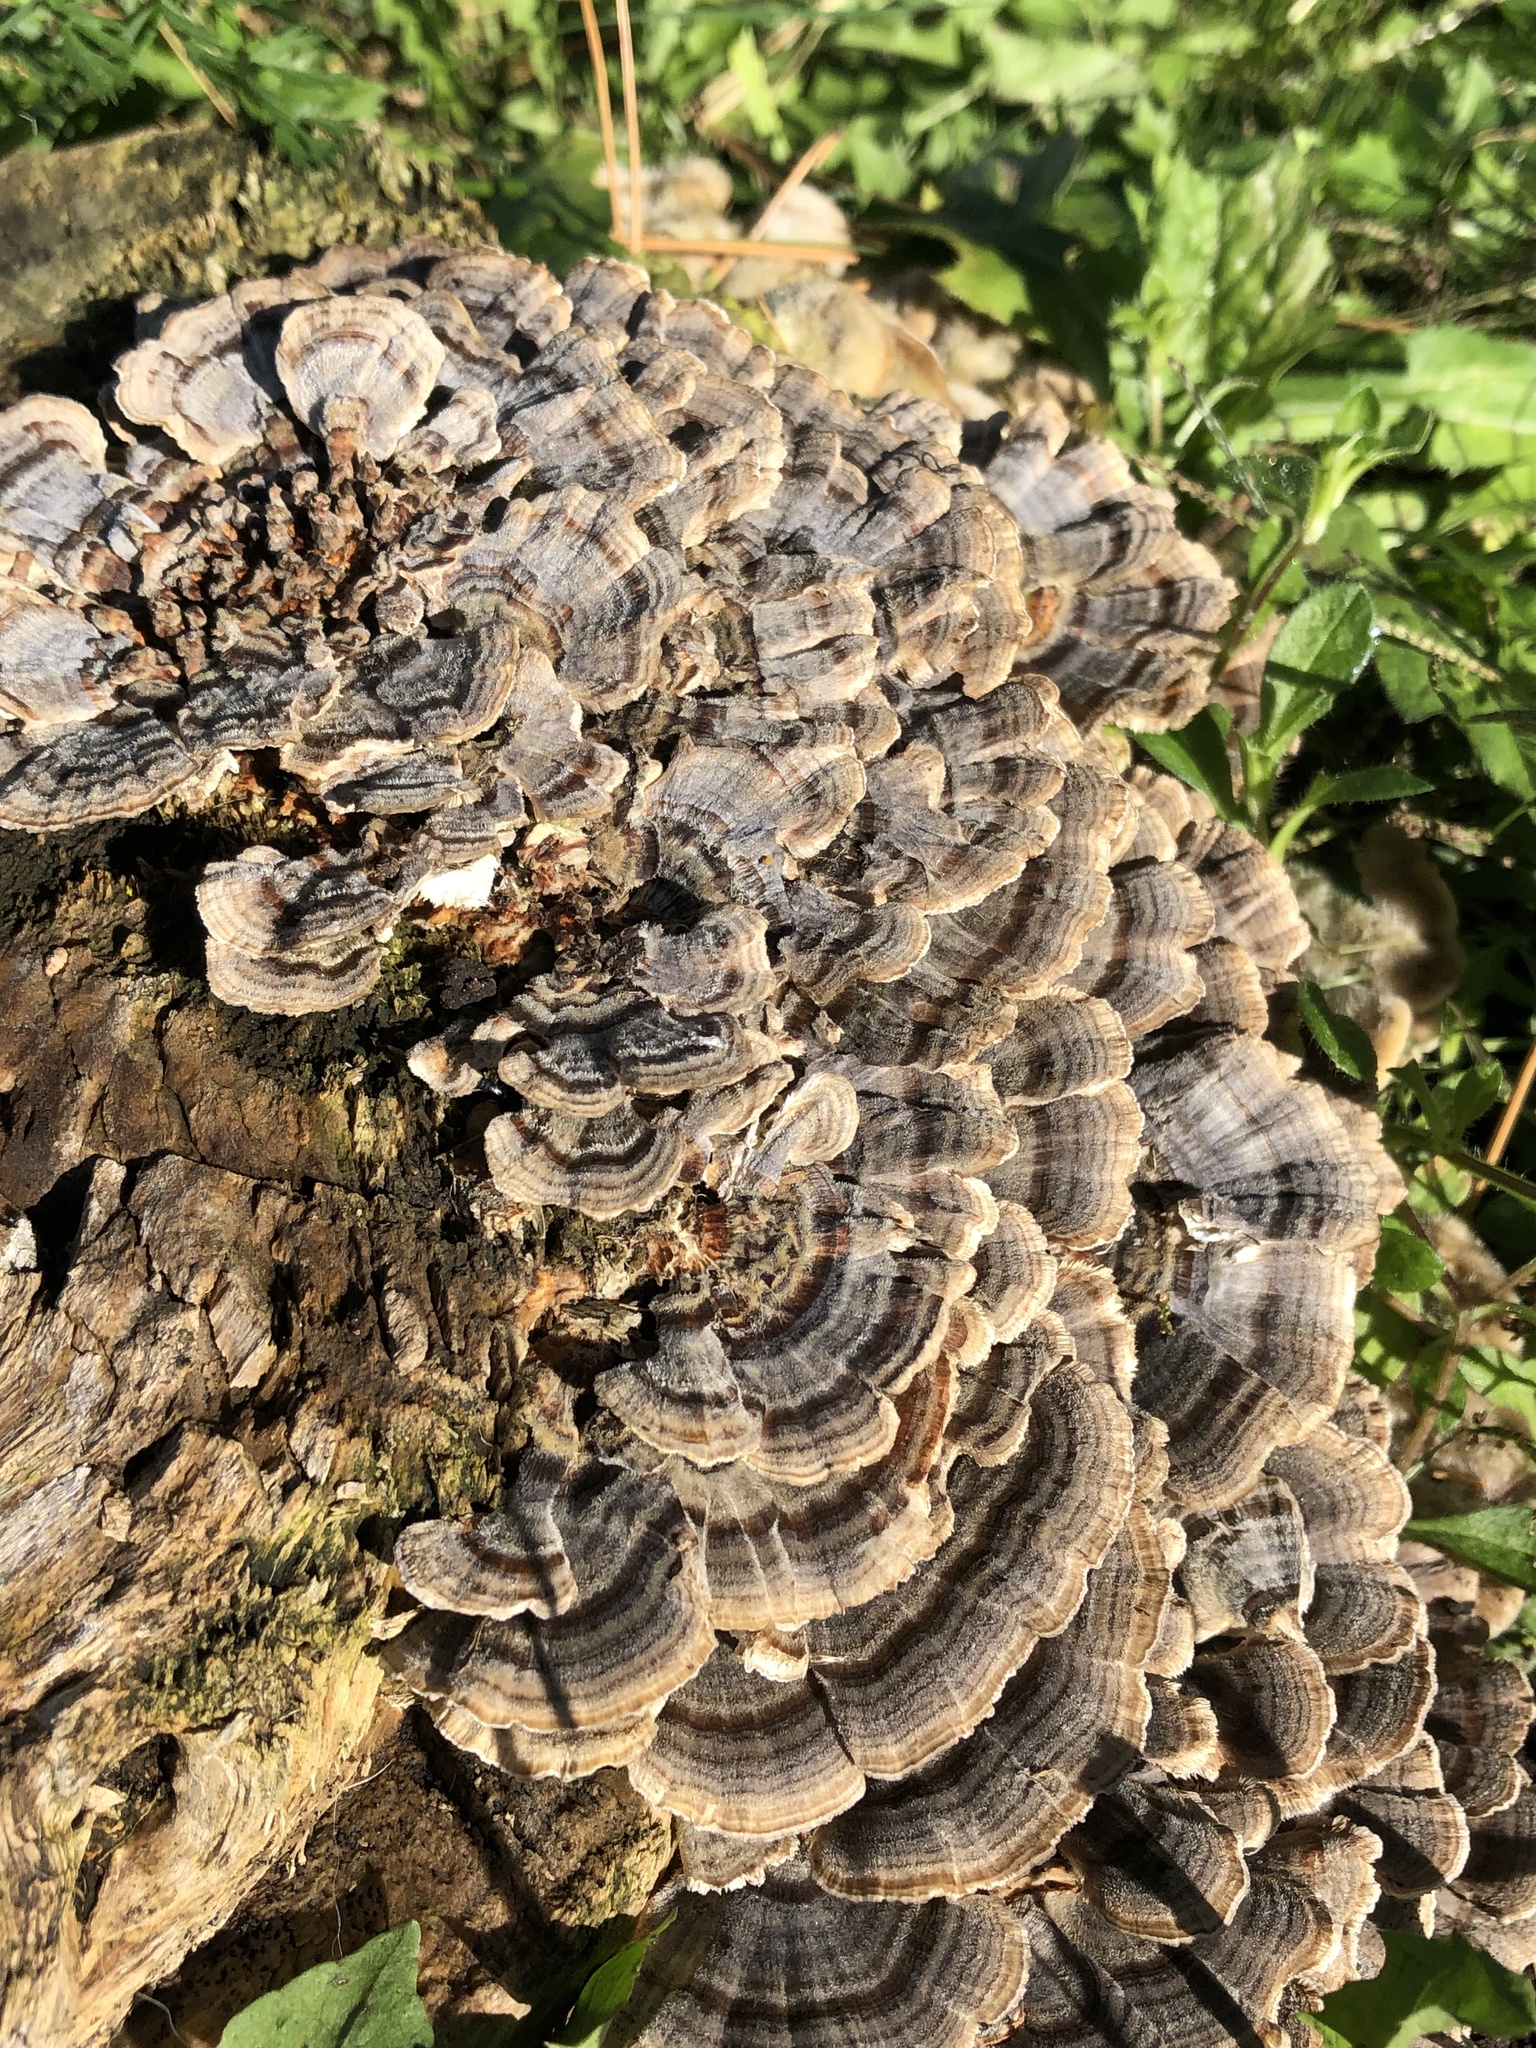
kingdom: Fungi
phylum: Basidiomycota
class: Agaricomycetes
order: Polyporales
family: Polyporaceae
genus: Trametes
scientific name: Trametes versicolor
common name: Turkeytail
